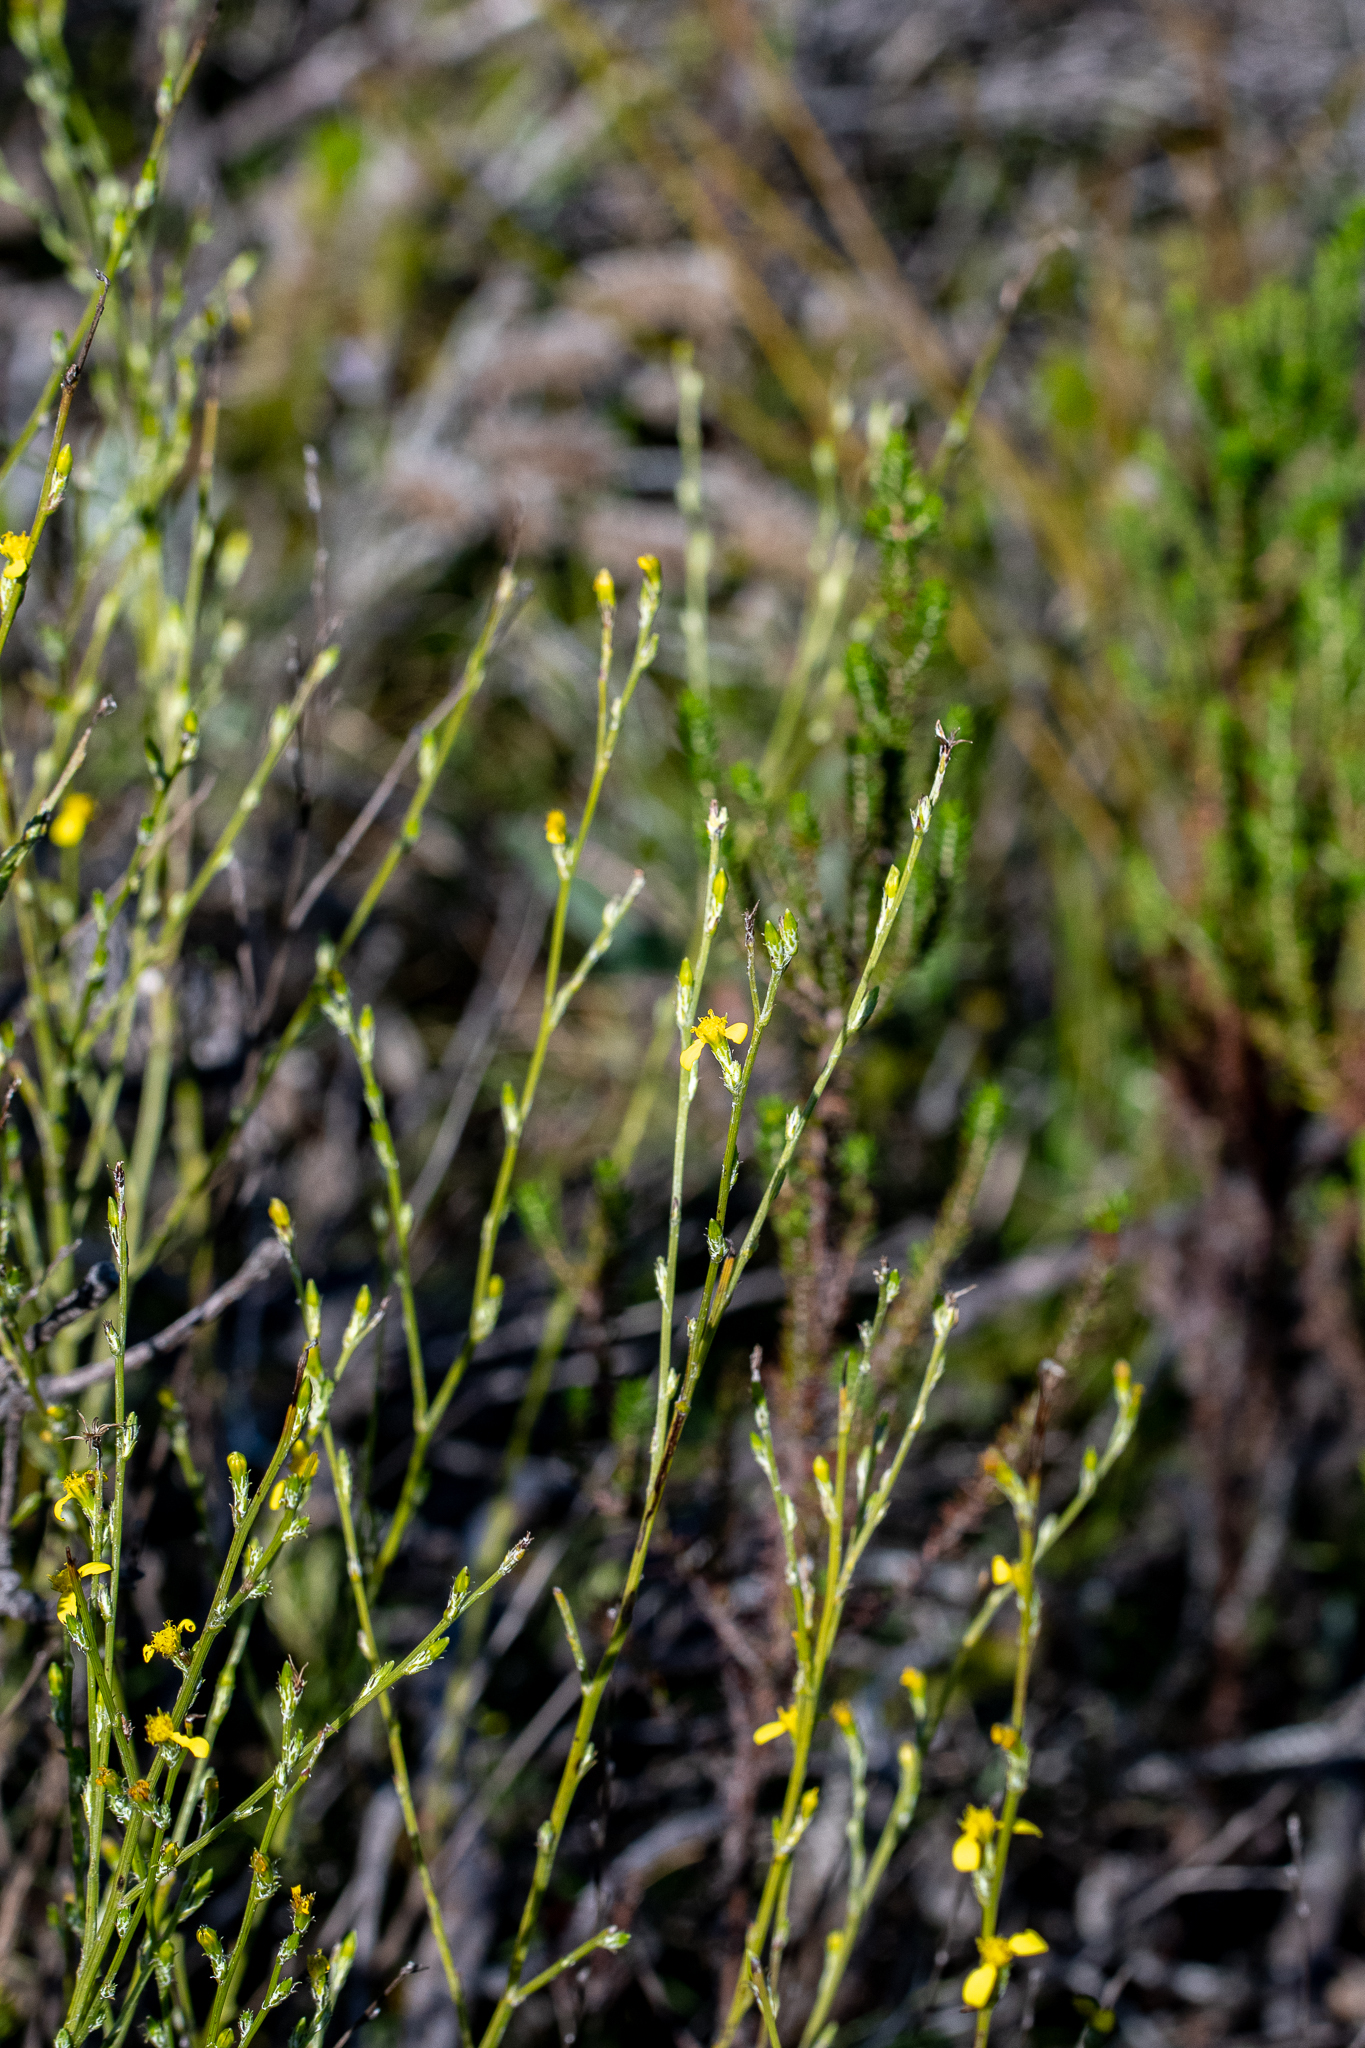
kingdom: Plantae
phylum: Tracheophyta
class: Magnoliopsida
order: Asterales
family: Asteraceae
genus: Senecio
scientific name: Senecio pubigerus
